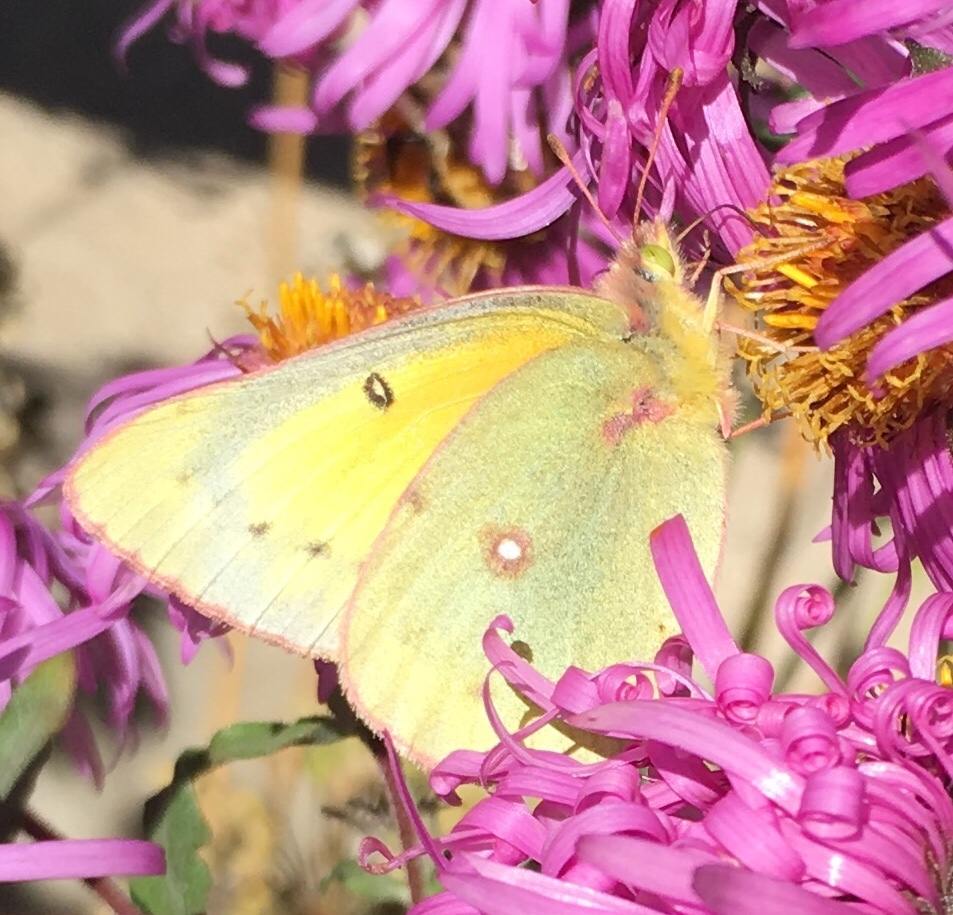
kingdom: Animalia
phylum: Arthropoda
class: Insecta
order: Lepidoptera
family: Pieridae
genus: Colias
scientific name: Colias eurytheme
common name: Alfalfa butterfly
